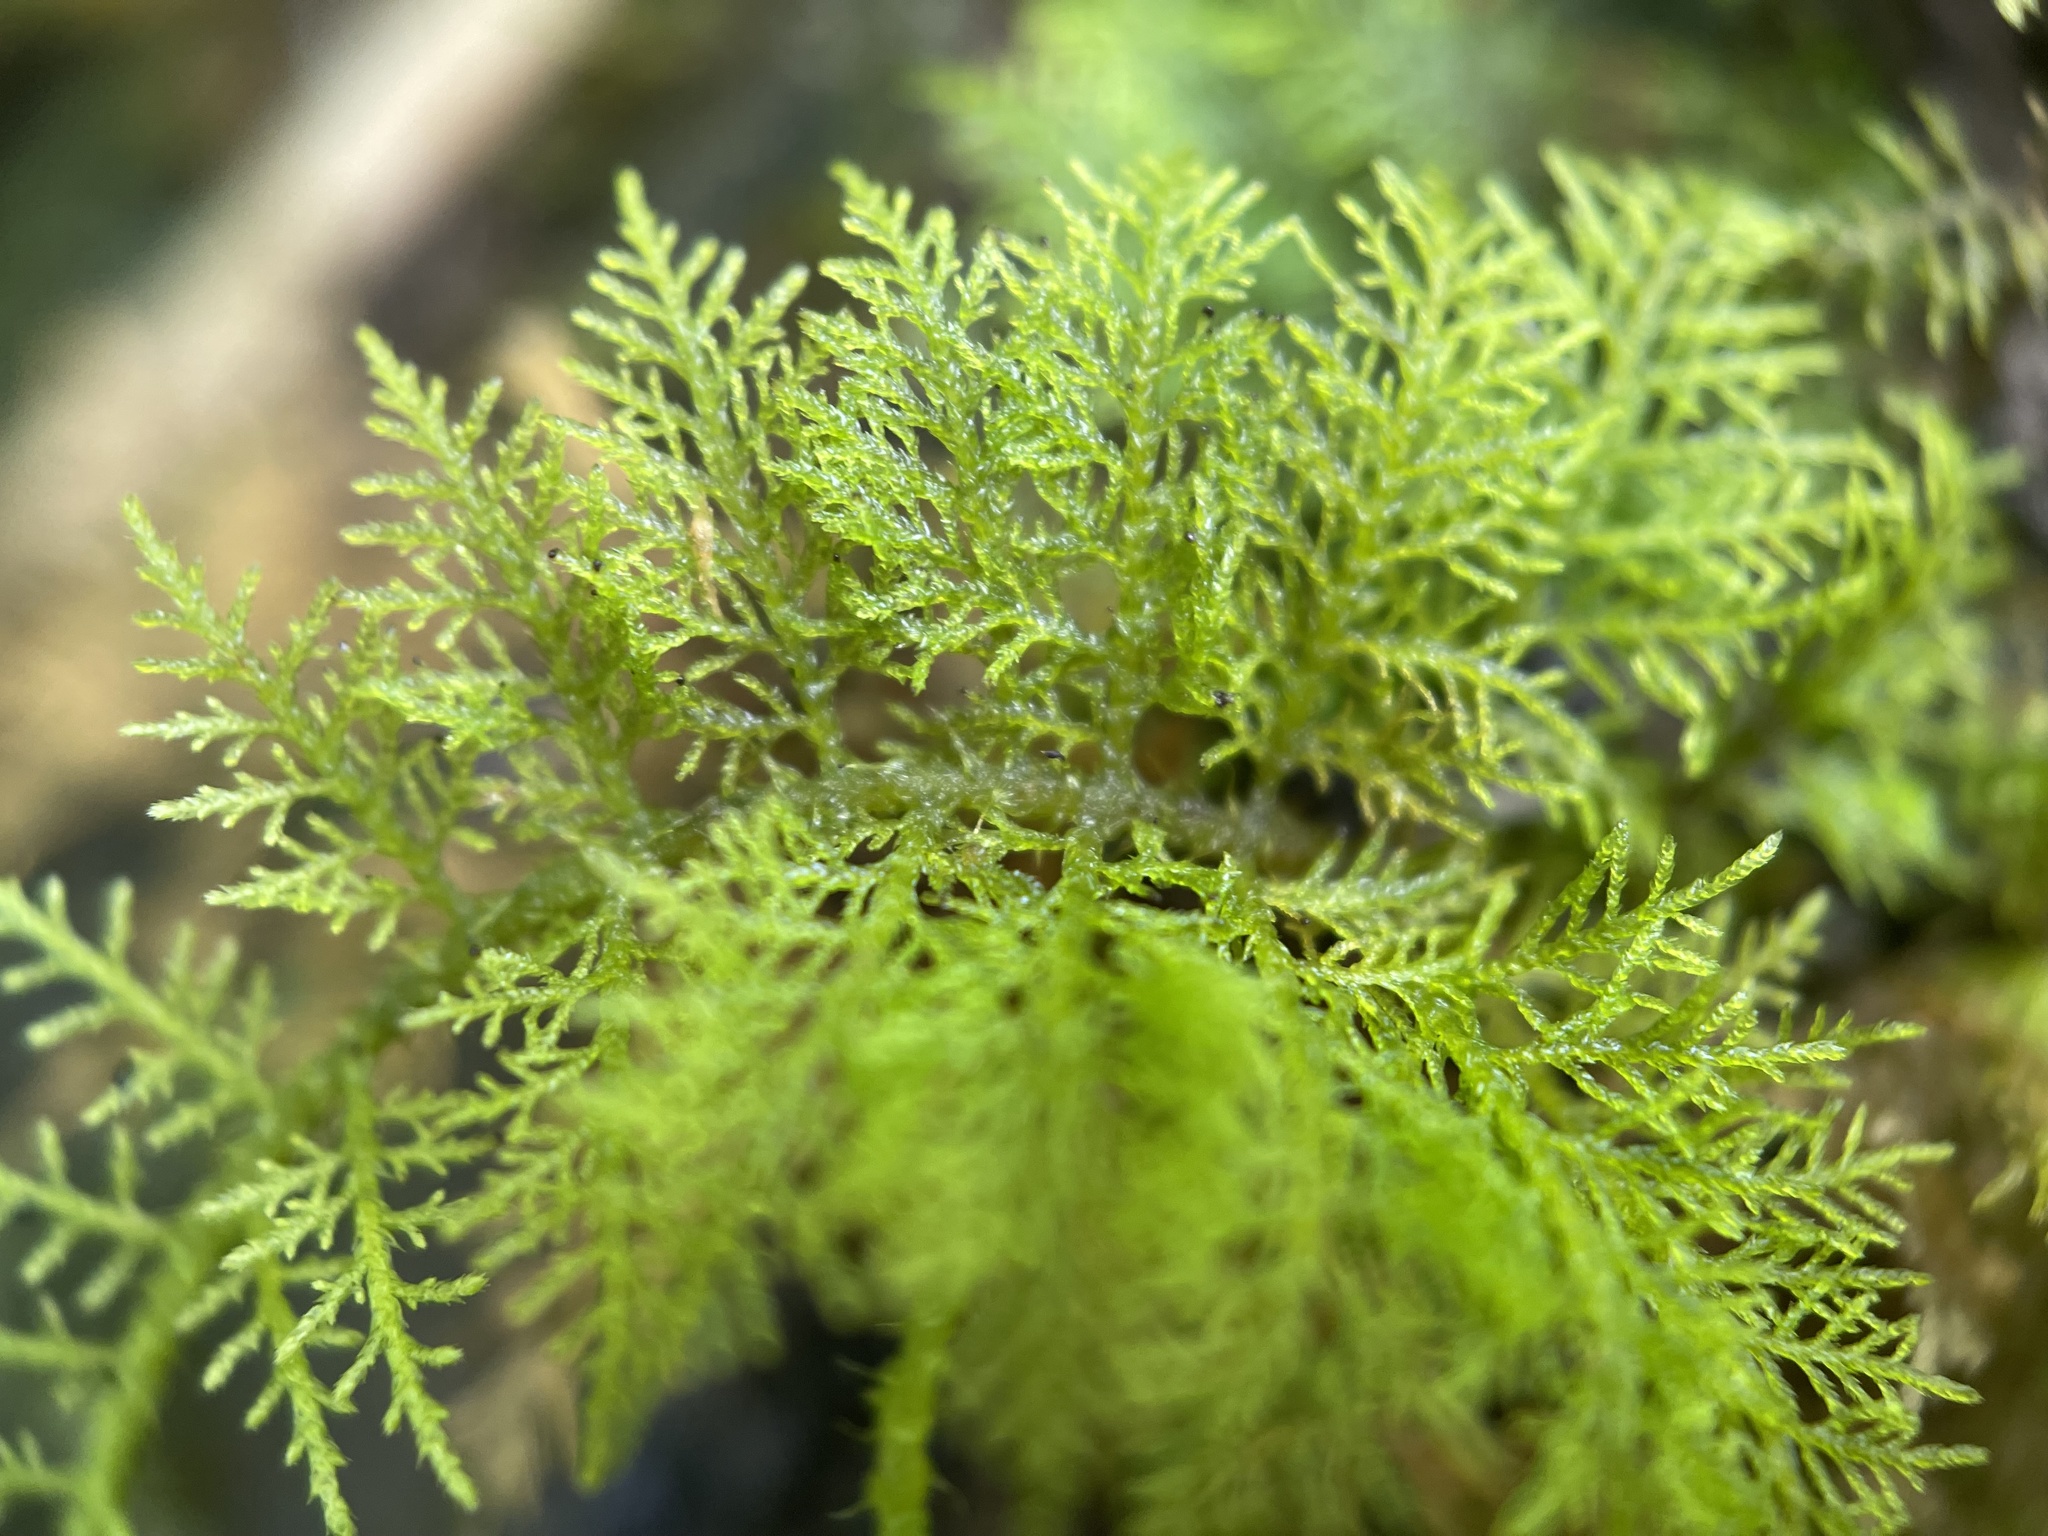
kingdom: Plantae
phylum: Bryophyta
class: Bryopsida
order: Hypnales
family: Thuidiaceae
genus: Thuidium
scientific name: Thuidium urceolatum
